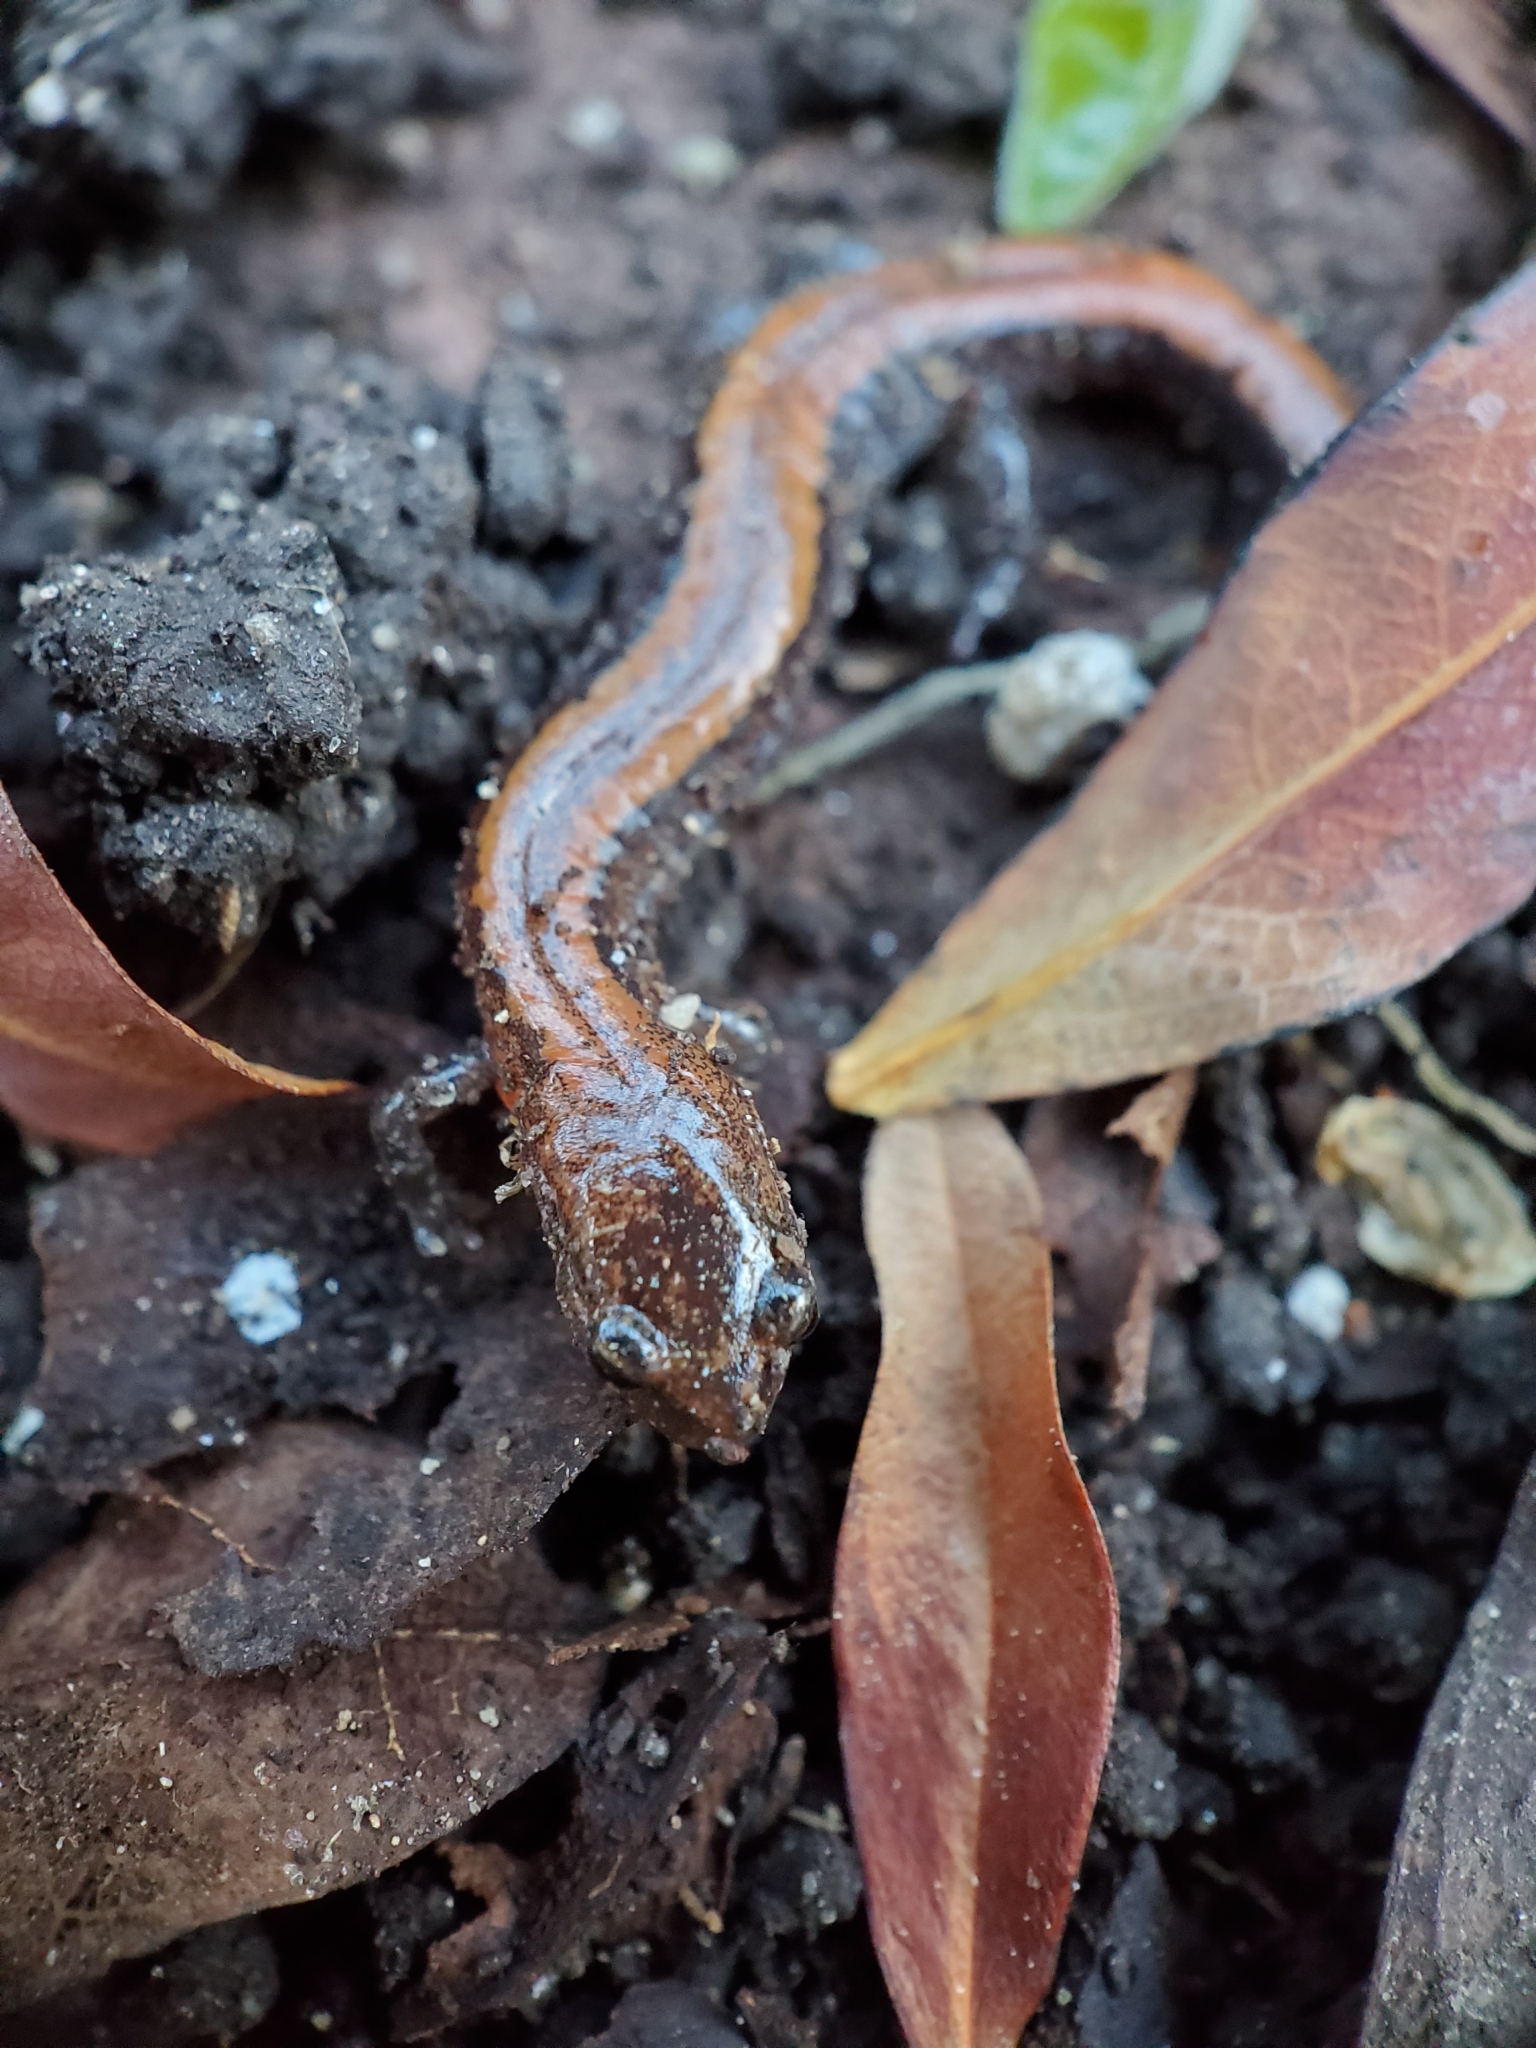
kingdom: Animalia
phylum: Chordata
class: Amphibia
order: Caudata
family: Plethodontidae
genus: Plethodon
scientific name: Plethodon cinereus
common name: Redback salamander
